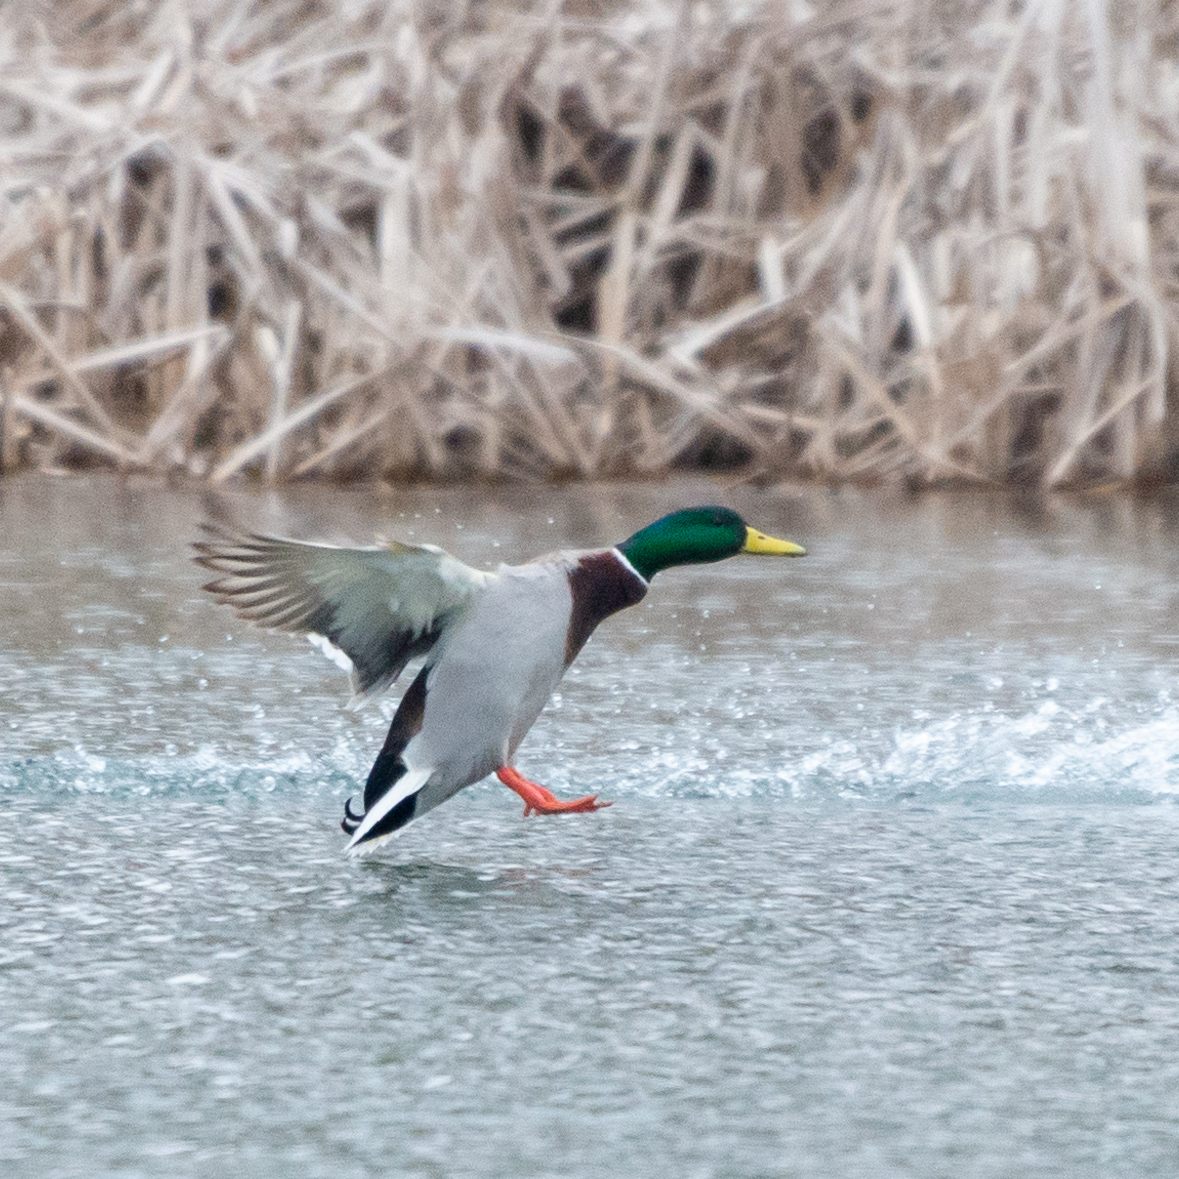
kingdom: Animalia
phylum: Chordata
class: Aves
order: Anseriformes
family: Anatidae
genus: Anas
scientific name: Anas platyrhynchos
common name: Mallard
